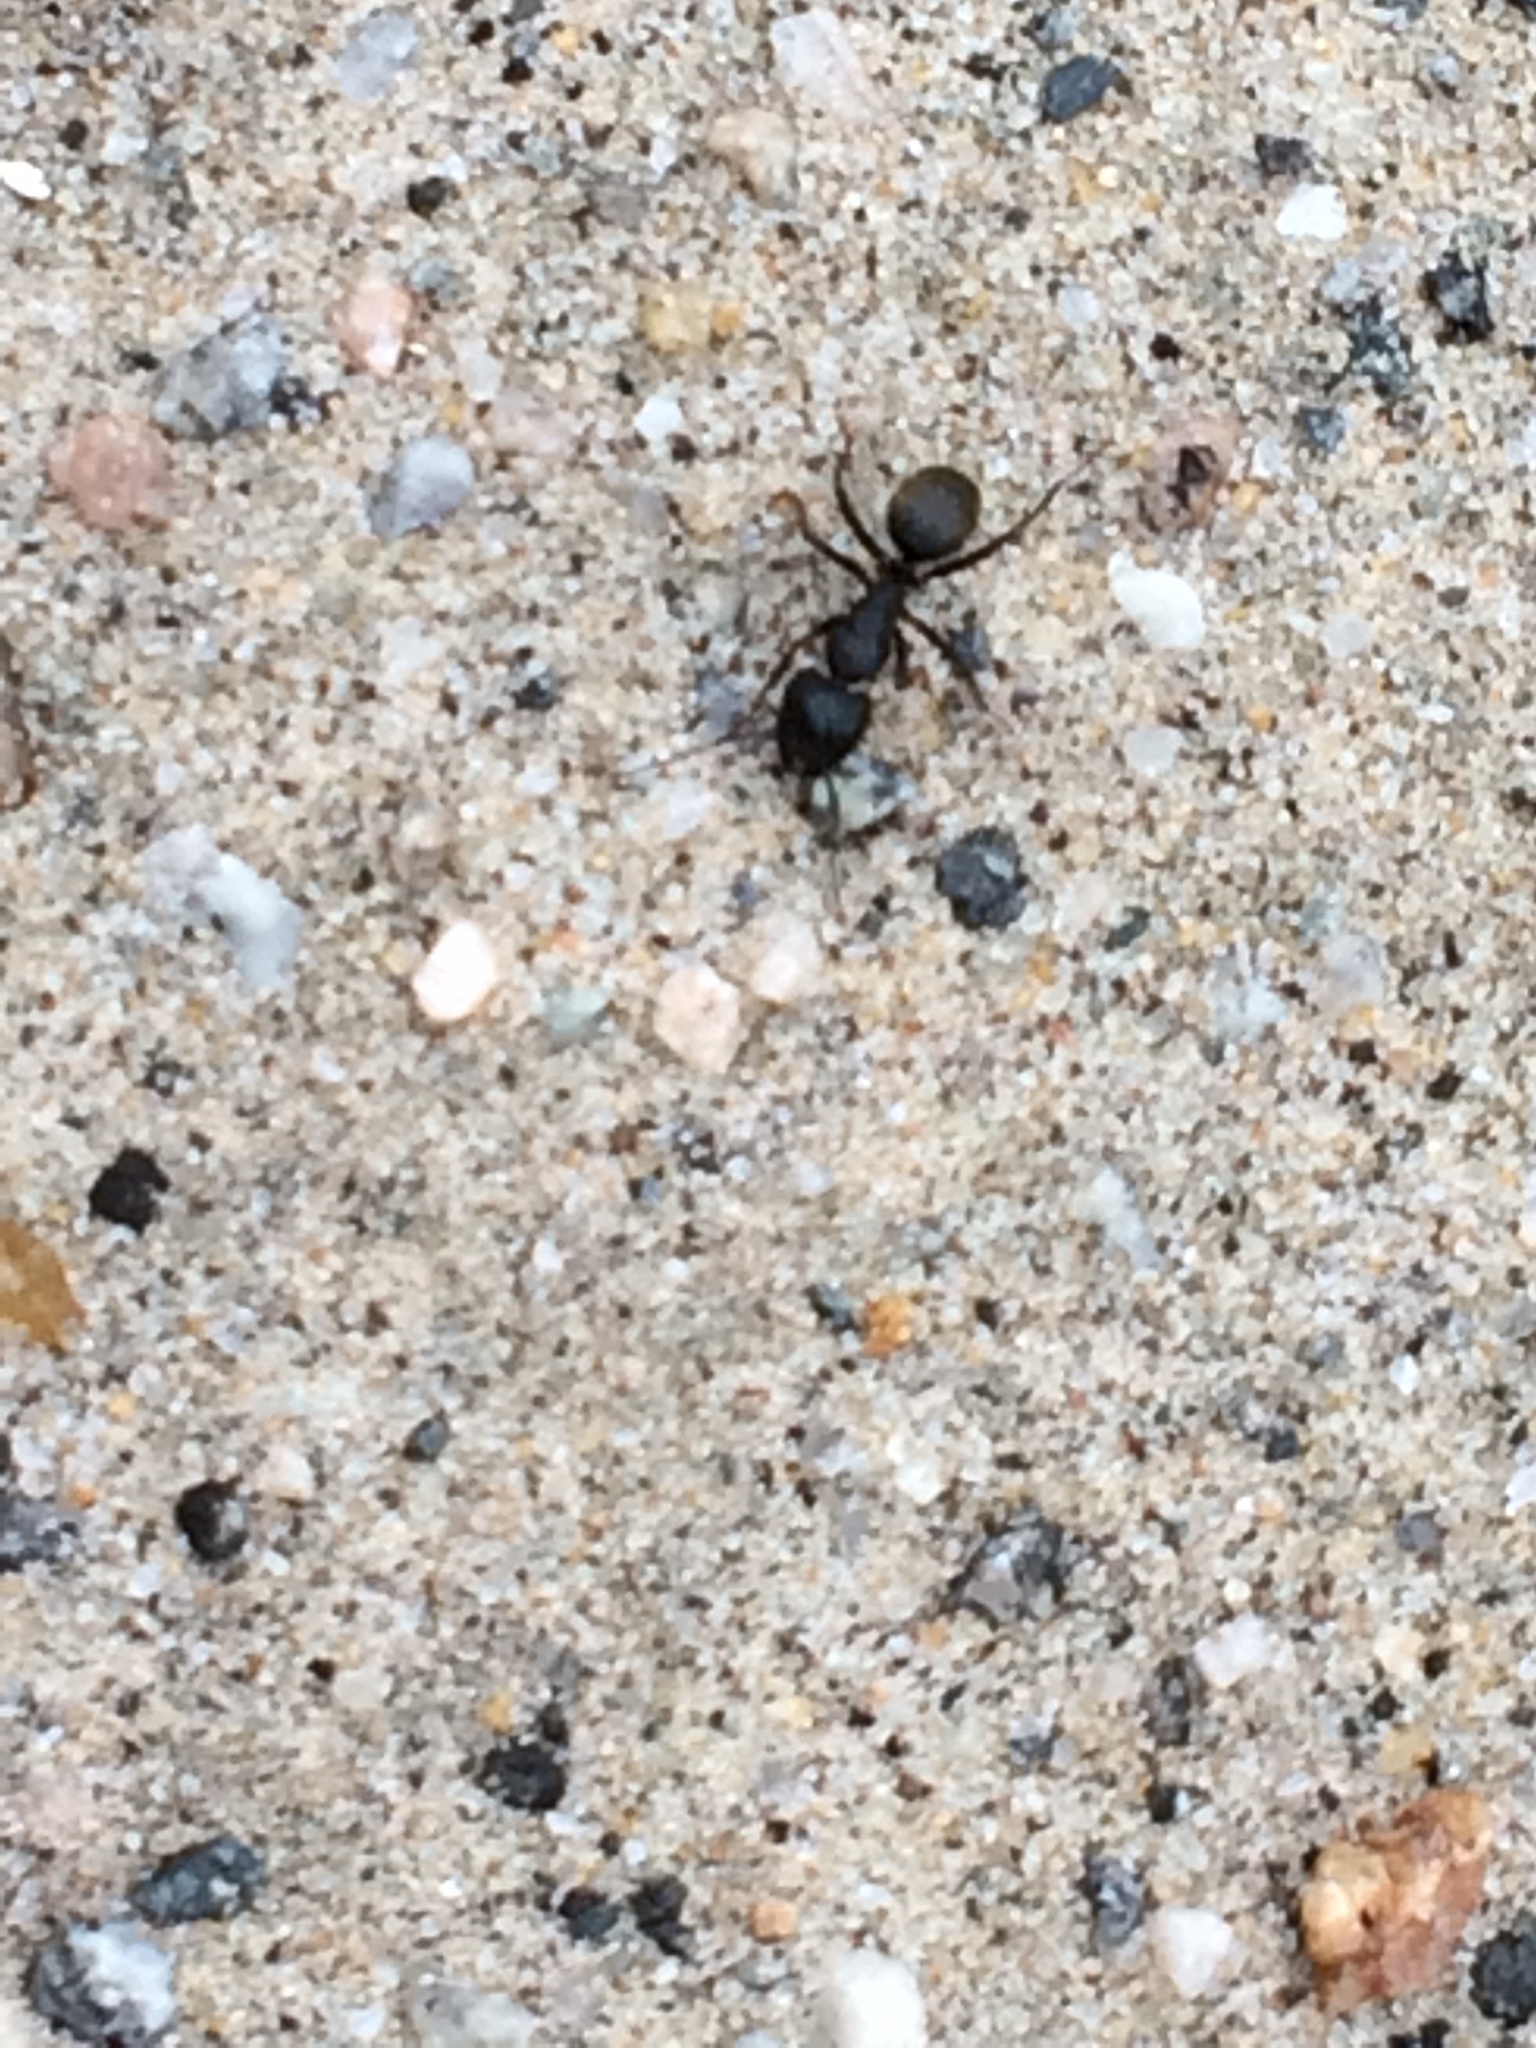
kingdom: Animalia
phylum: Arthropoda
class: Insecta
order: Hymenoptera
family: Formicidae
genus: Camponotus
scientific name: Camponotus pennsylvanicus
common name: Black carpenter ant
